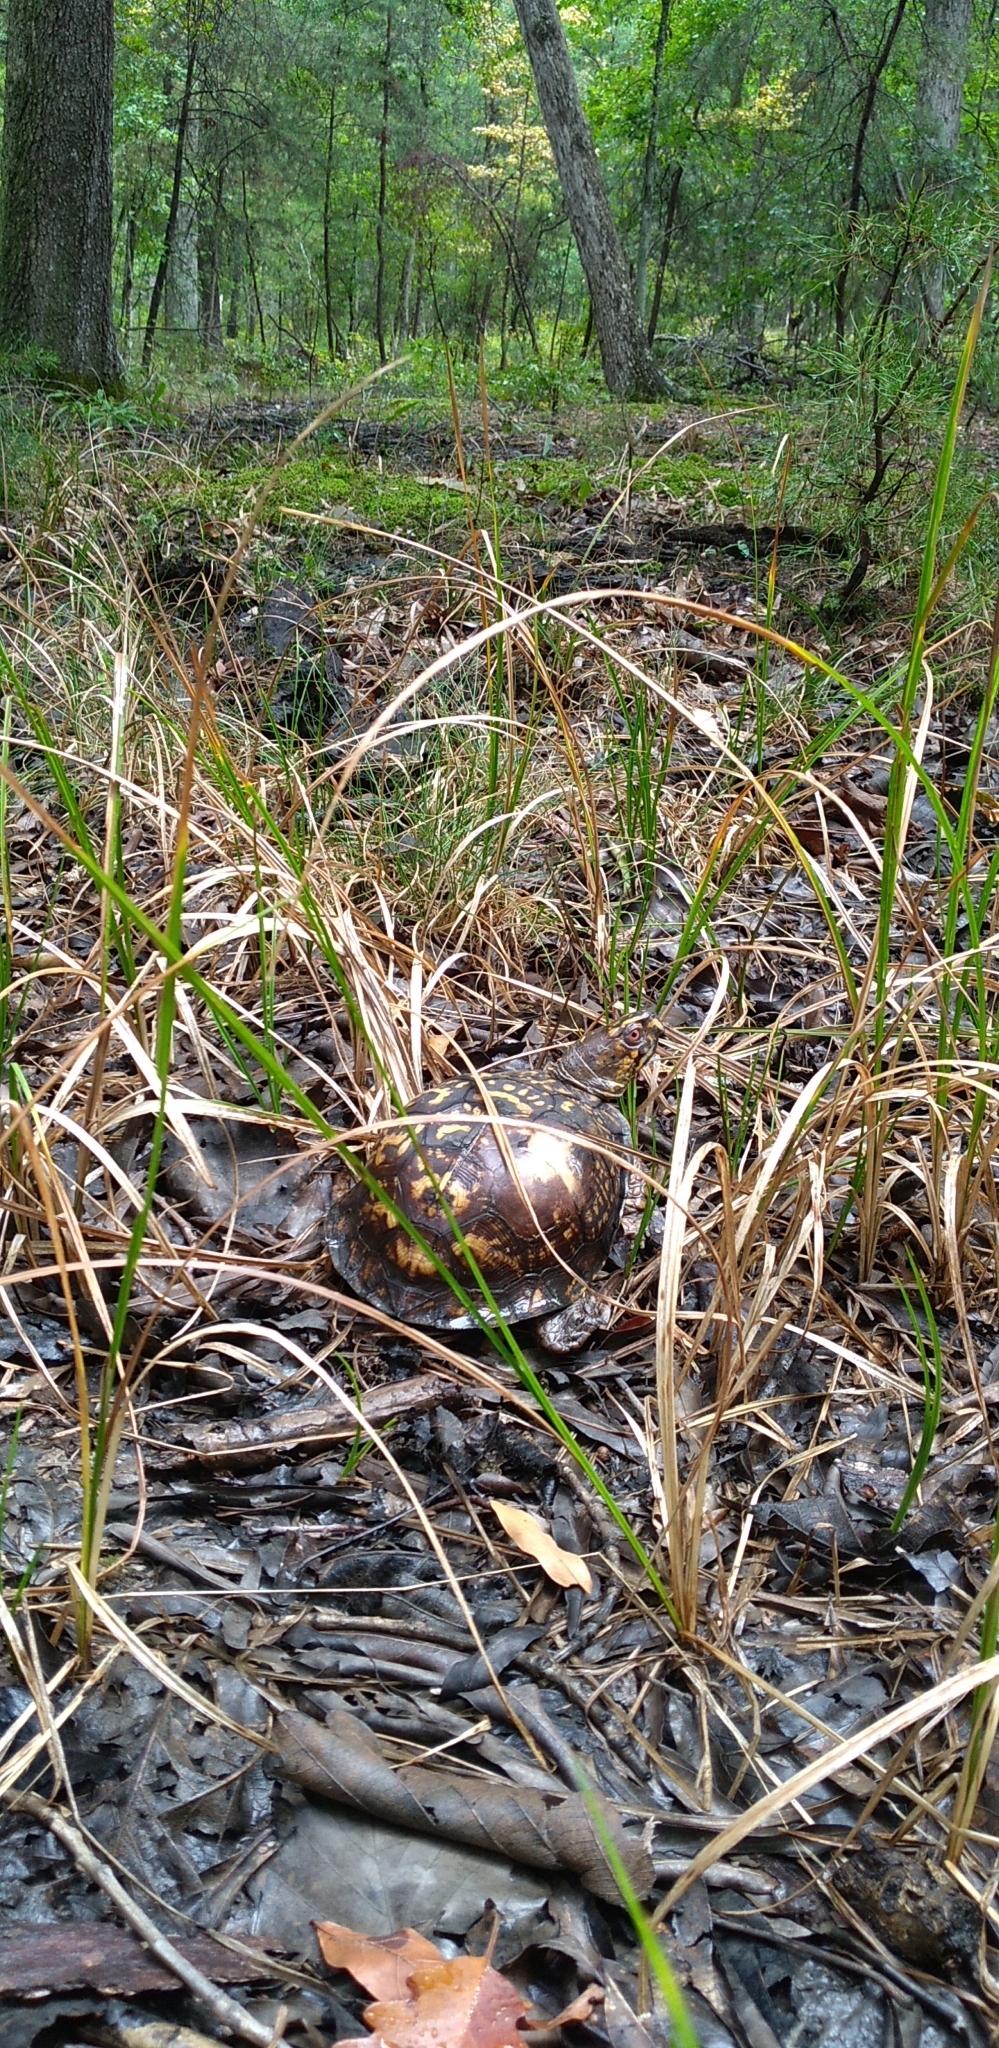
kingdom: Animalia
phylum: Chordata
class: Testudines
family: Emydidae
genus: Terrapene
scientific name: Terrapene carolina
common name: Common box turtle
